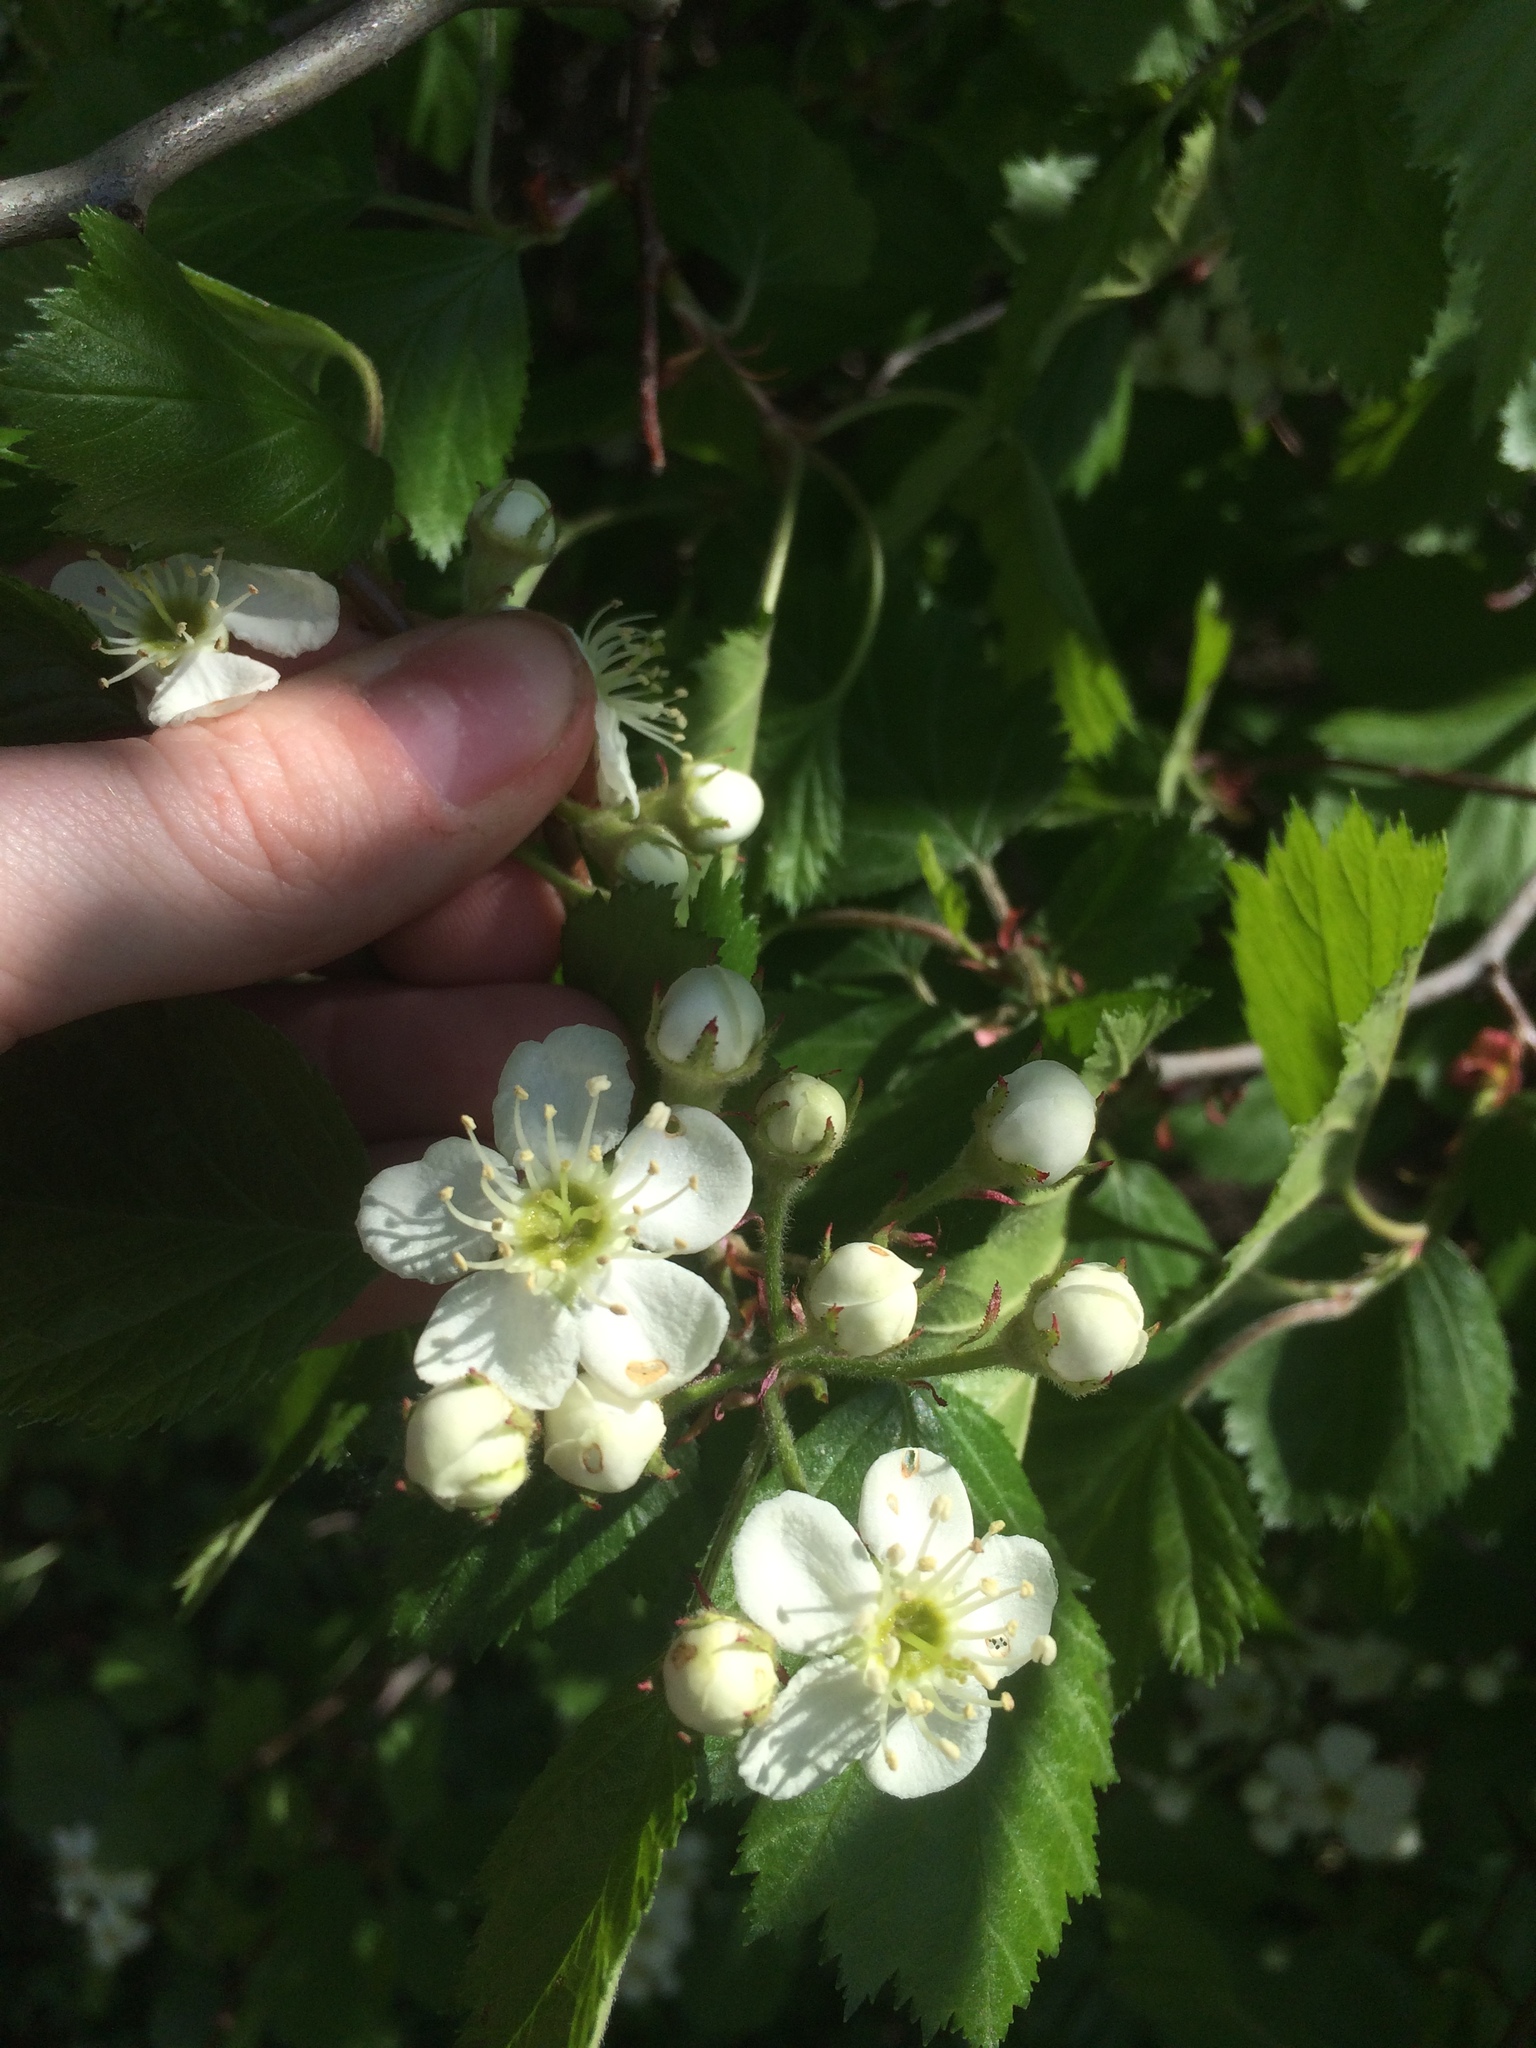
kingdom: Plantae
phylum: Tracheophyta
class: Magnoliopsida
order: Rosales
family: Rosaceae
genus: Crataegus
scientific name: Crataegus submollis
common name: Hairy cockspurthorn
